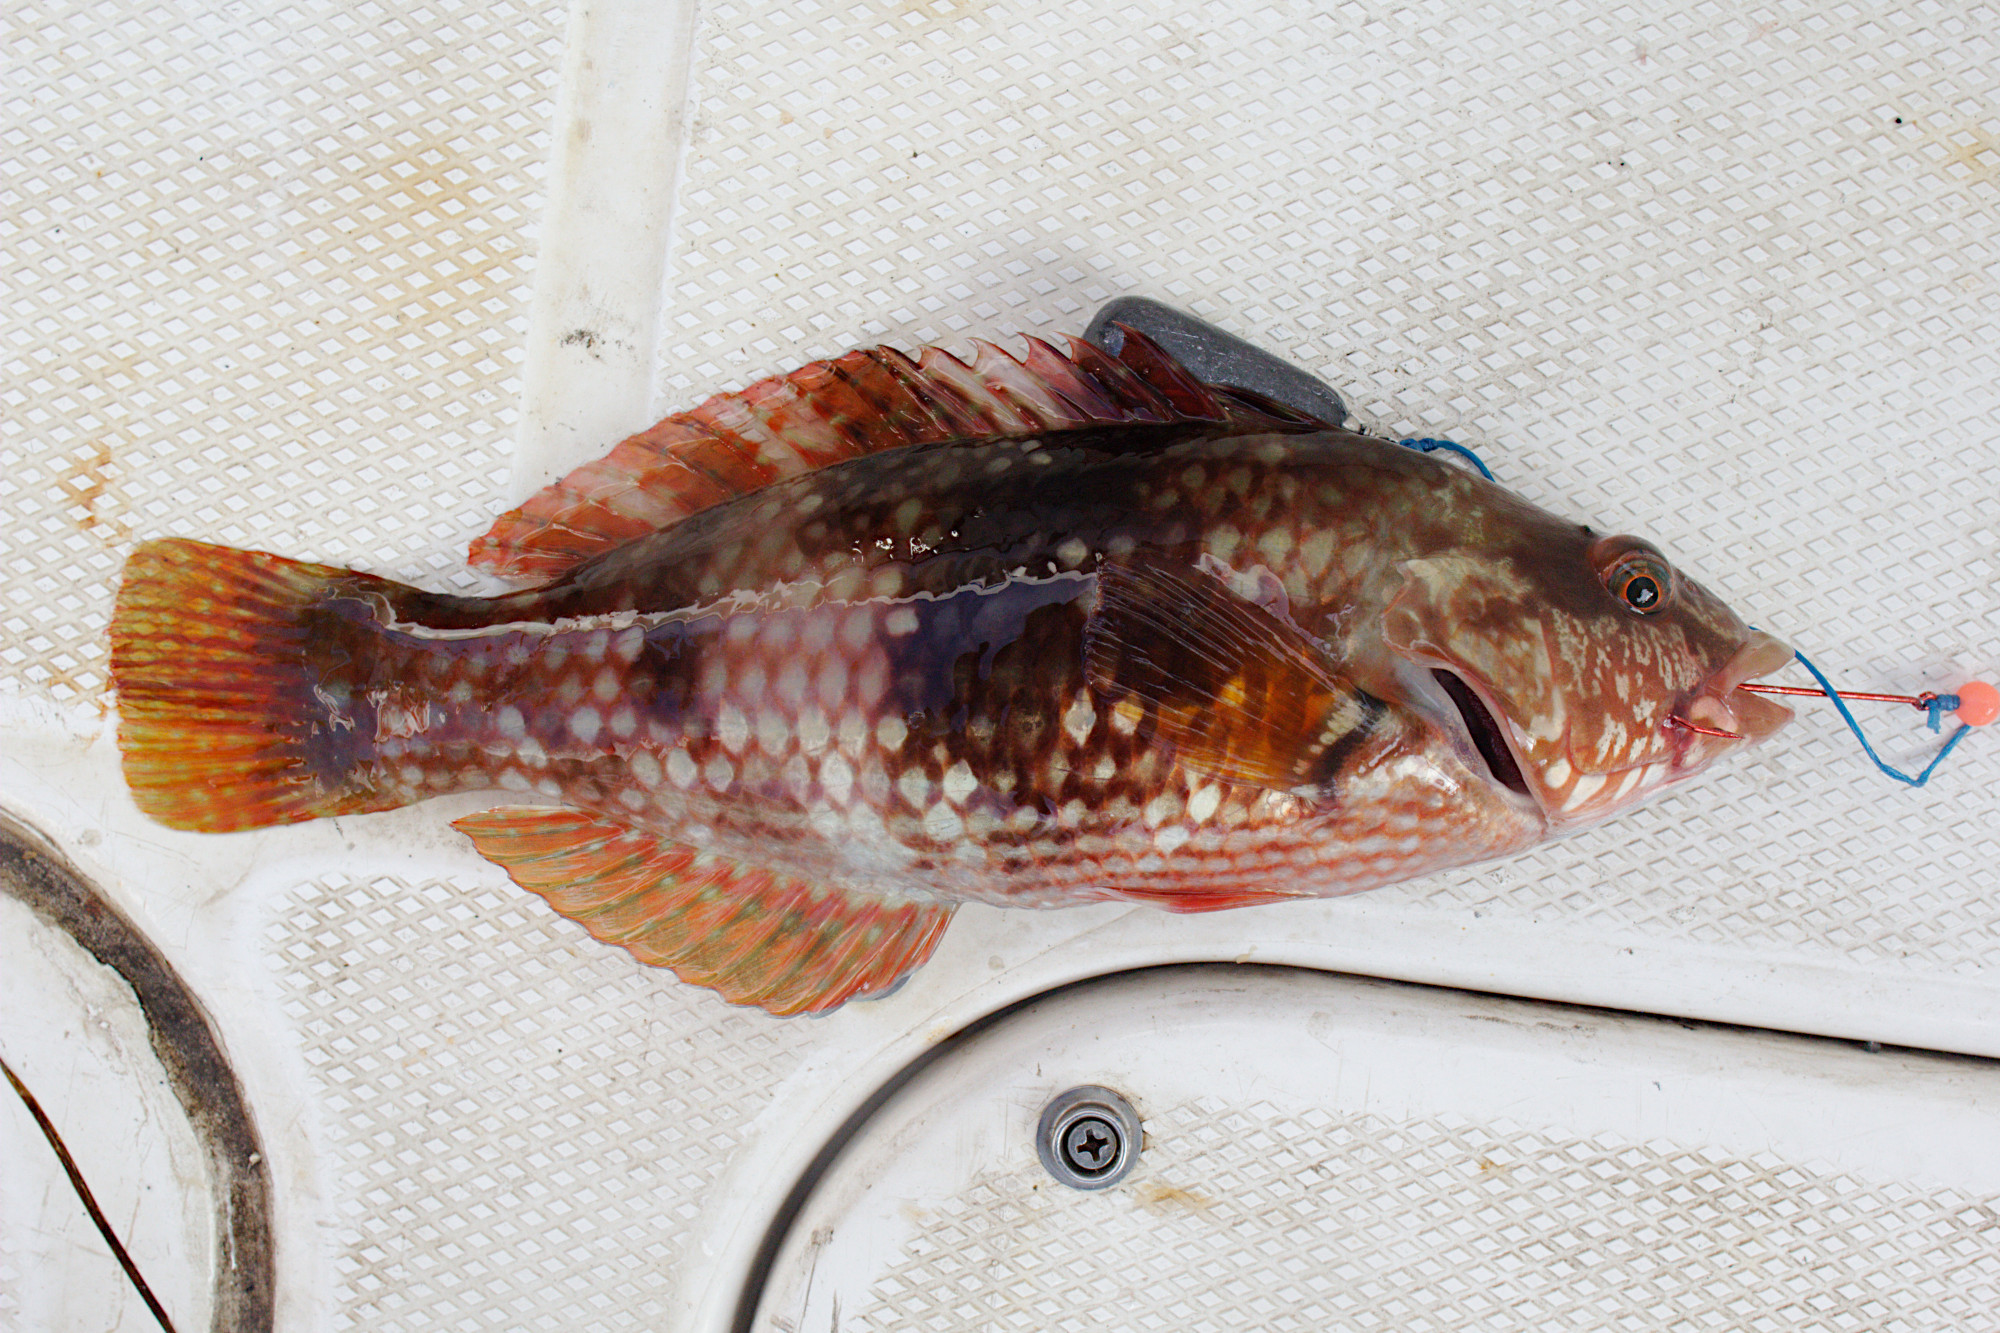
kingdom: Animalia
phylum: Chordata
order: Perciformes
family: Labridae
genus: Notolabrus
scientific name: Notolabrus tetricus
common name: Blue-throated parrotfish
